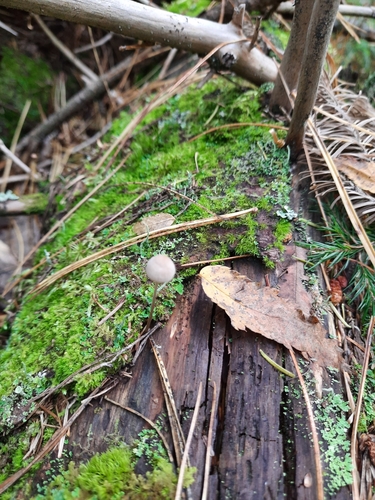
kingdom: Fungi
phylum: Basidiomycota
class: Agaricomycetes
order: Agaricales
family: Mycenaceae
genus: Mycena
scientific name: Mycena
